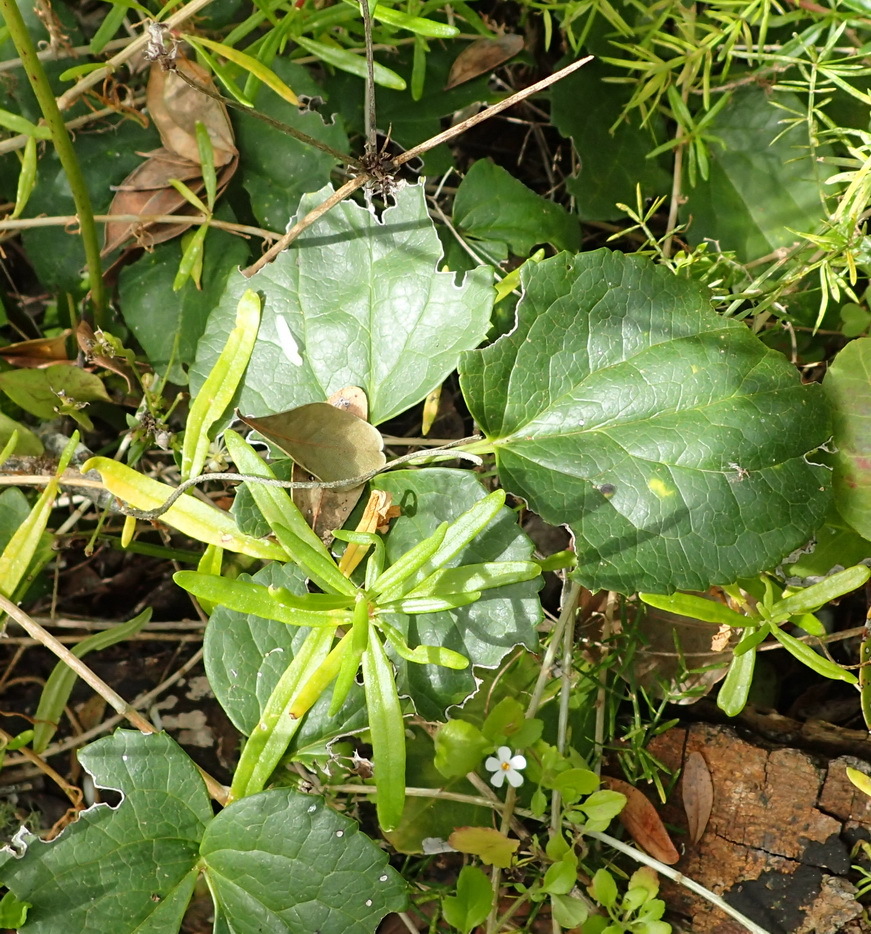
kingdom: Plantae
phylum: Tracheophyta
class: Magnoliopsida
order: Ranunculales
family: Ranunculaceae
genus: Knowltonia
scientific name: Knowltonia vesicatoria
